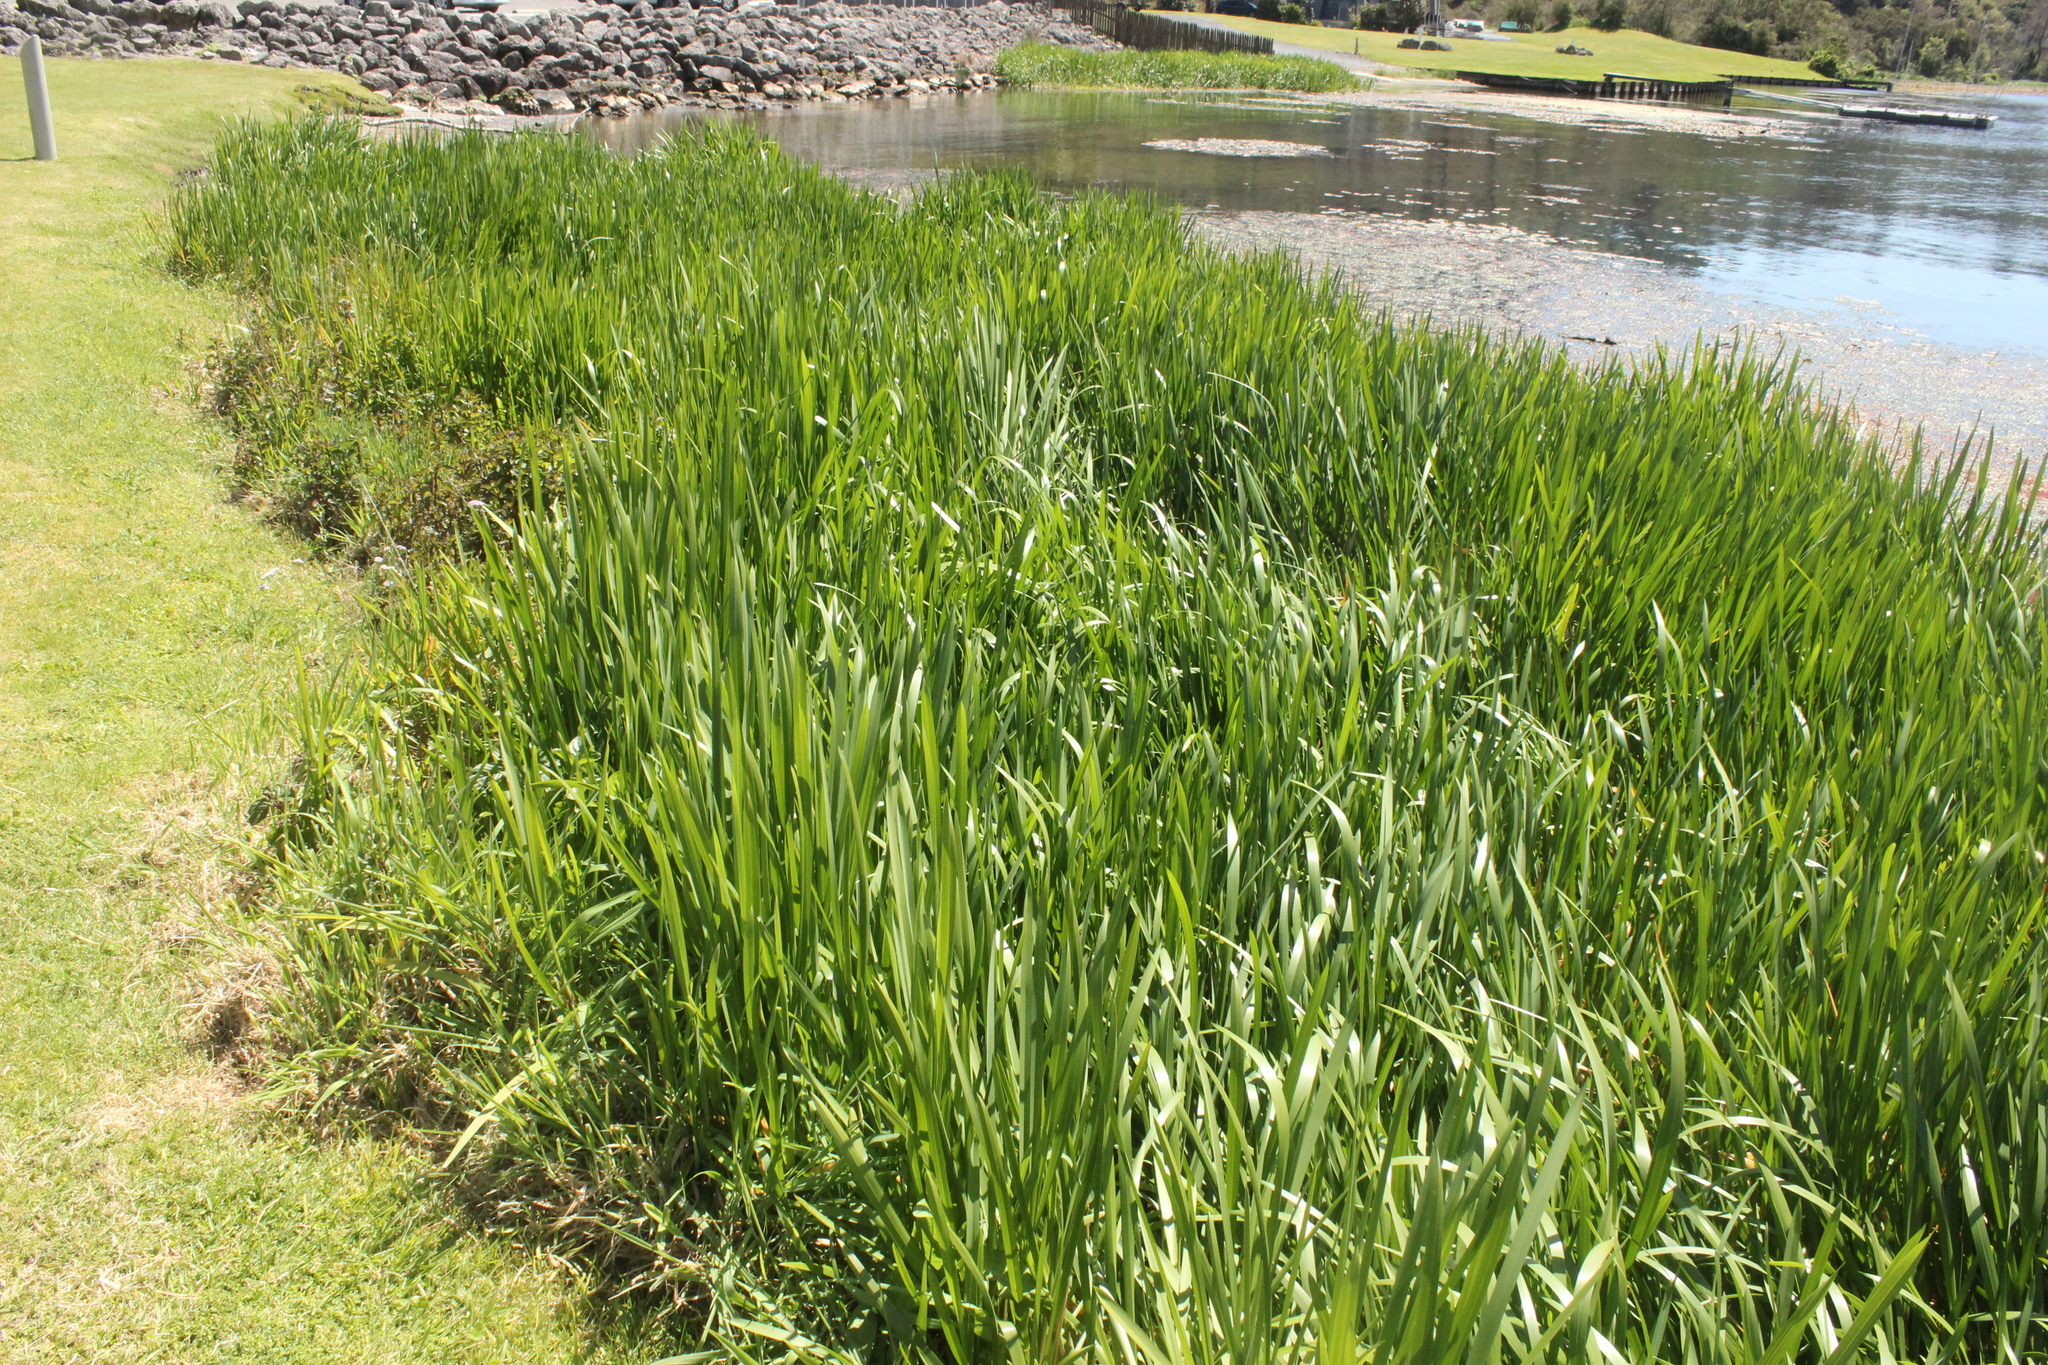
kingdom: Plantae
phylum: Tracheophyta
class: Liliopsida
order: Poales
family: Poaceae
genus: Glyceria
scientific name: Glyceria maxima
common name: Reed mannagrass
